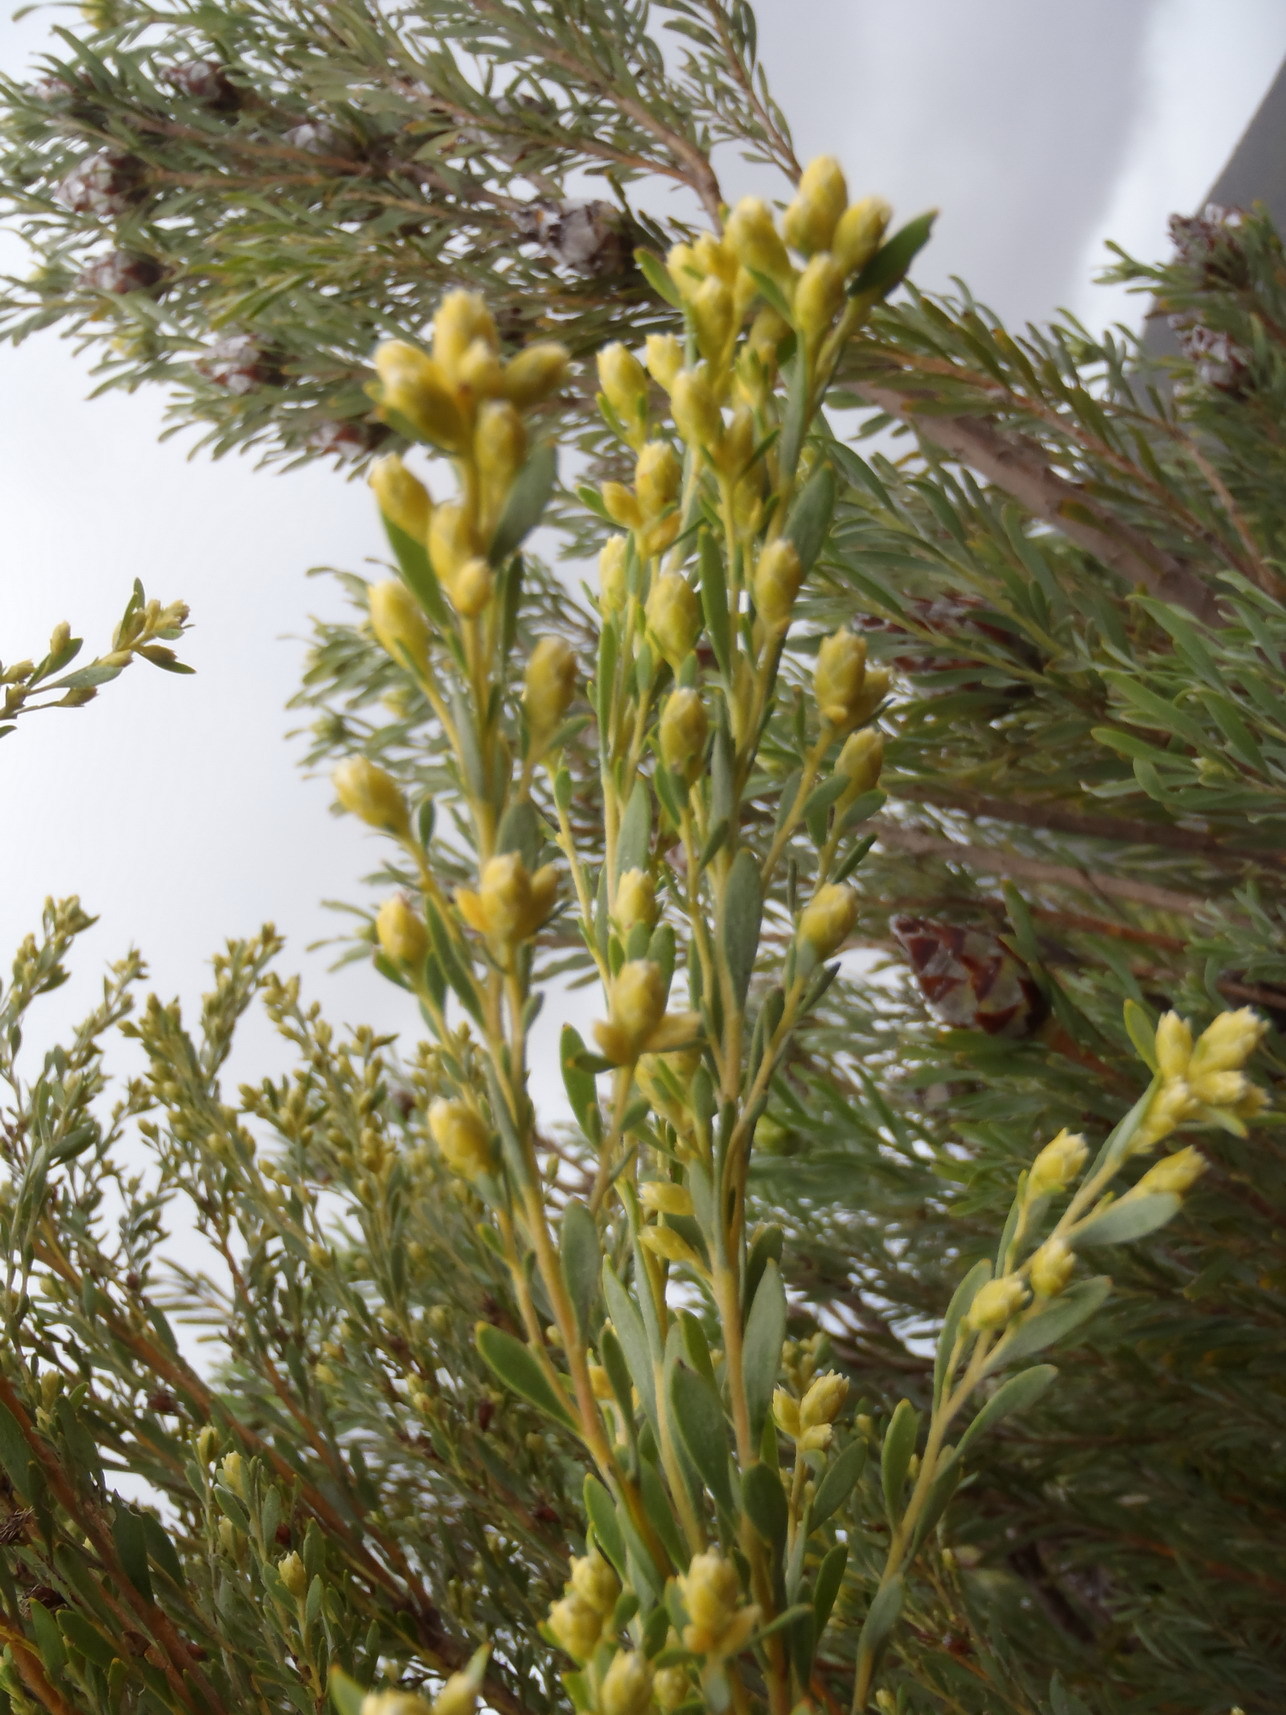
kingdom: Plantae
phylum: Tracheophyta
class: Magnoliopsida
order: Proteales
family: Proteaceae
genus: Leucadendron
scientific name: Leucadendron rubrum
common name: Spinning top
